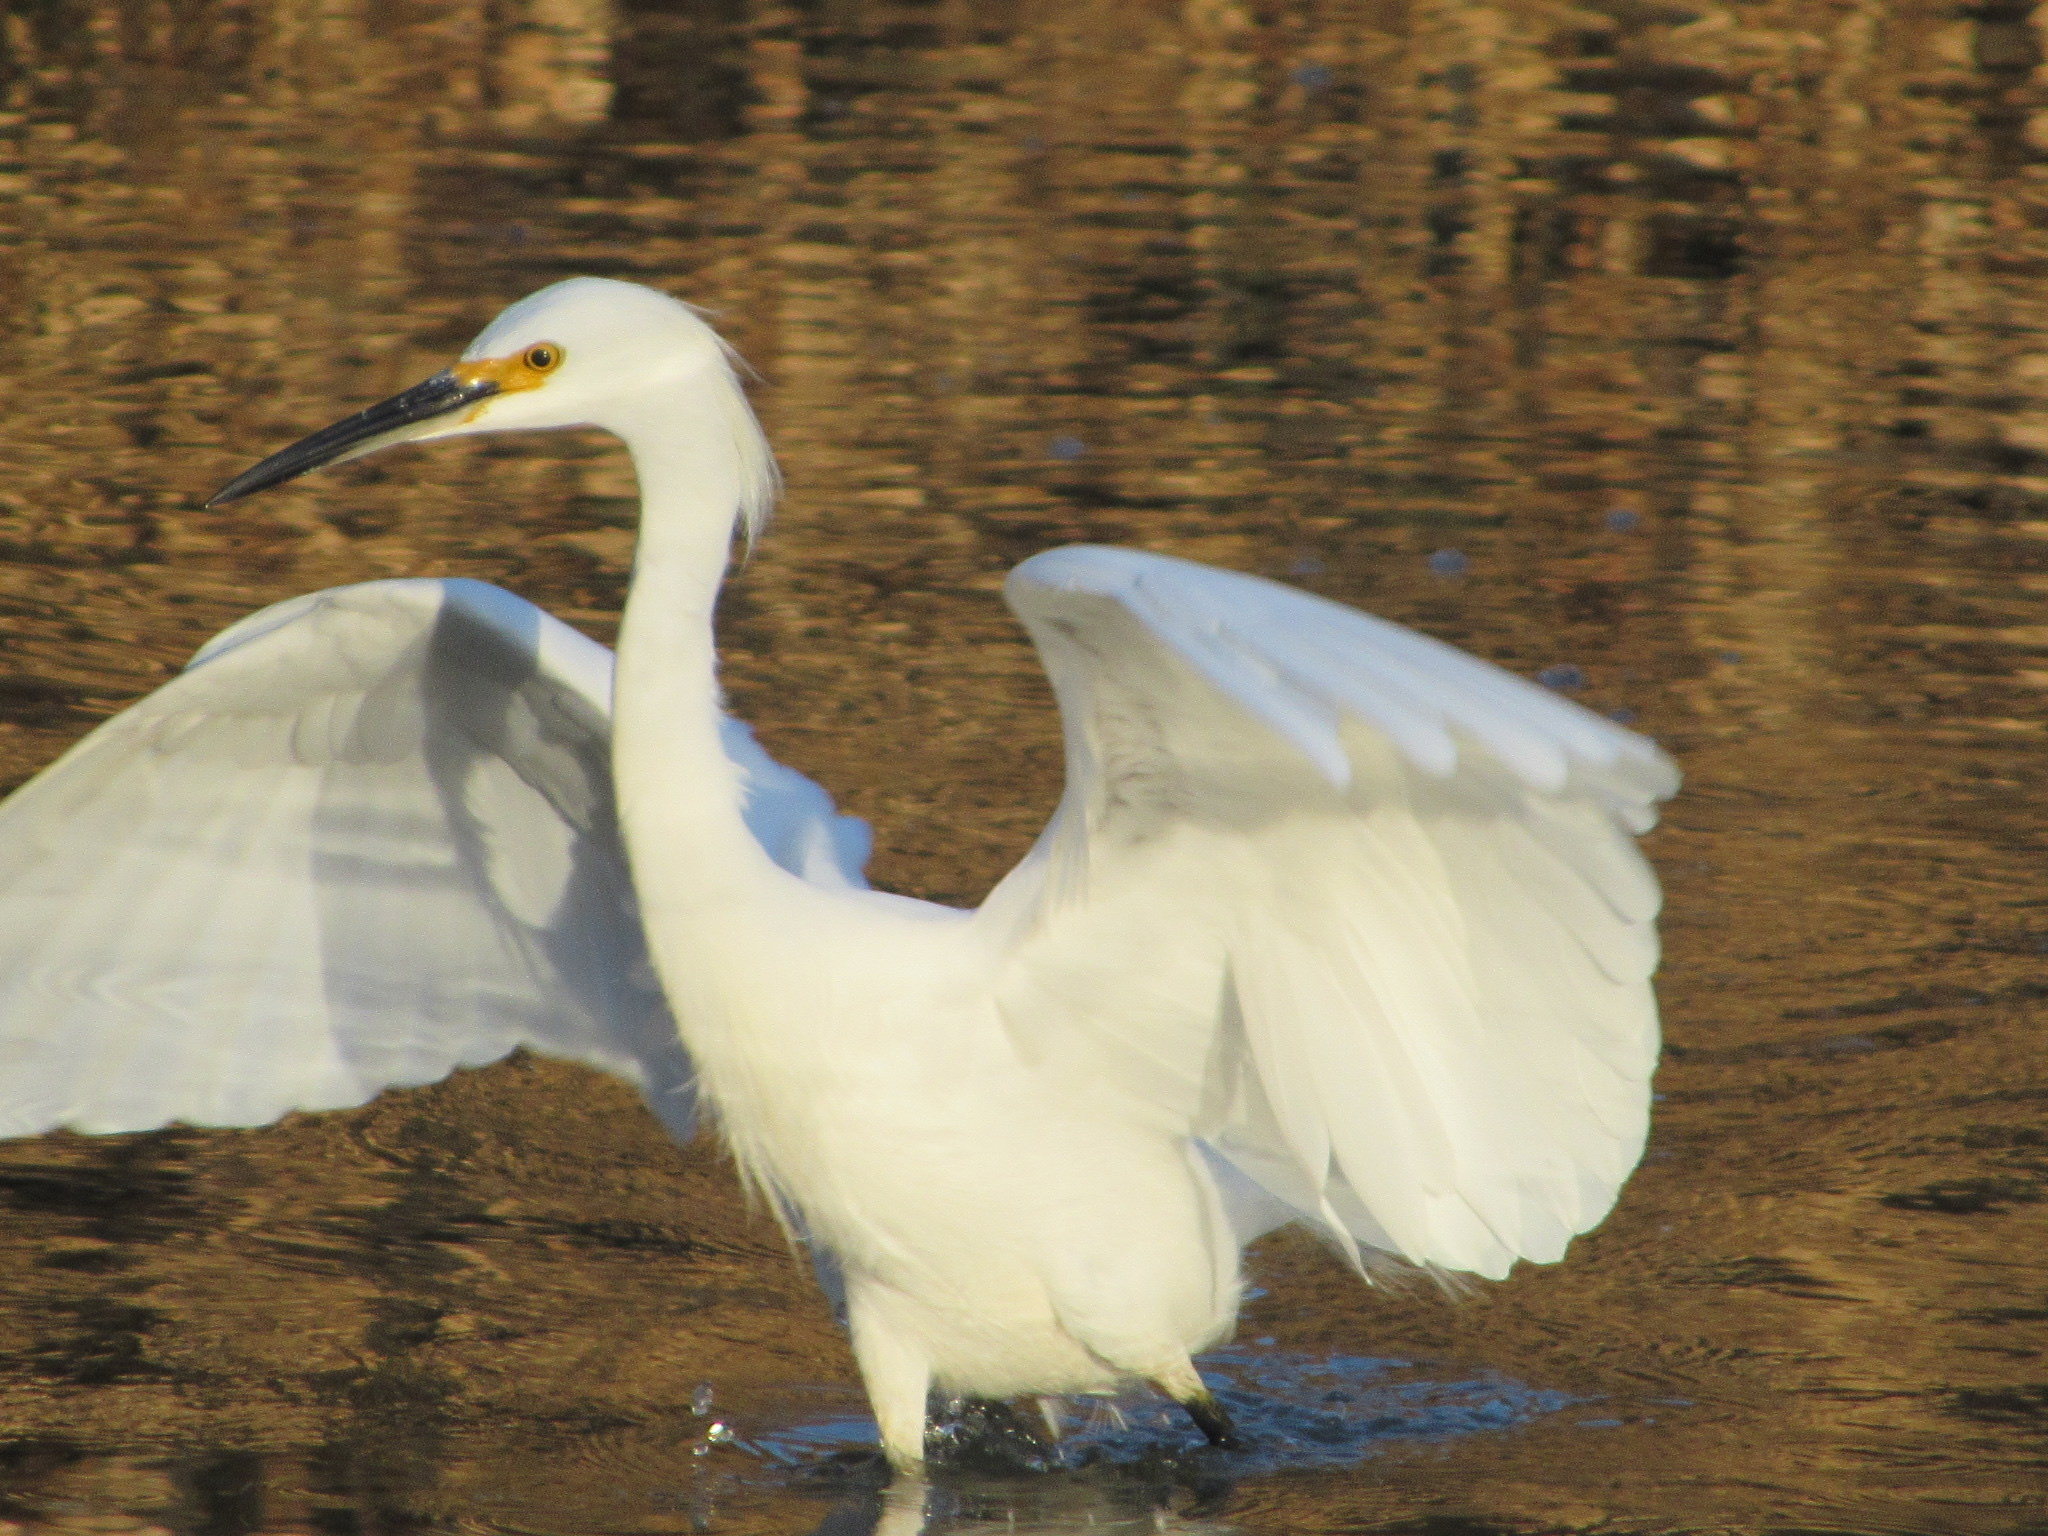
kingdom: Animalia
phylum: Chordata
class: Aves
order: Pelecaniformes
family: Ardeidae
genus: Egretta
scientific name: Egretta thula
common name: Snowy egret
